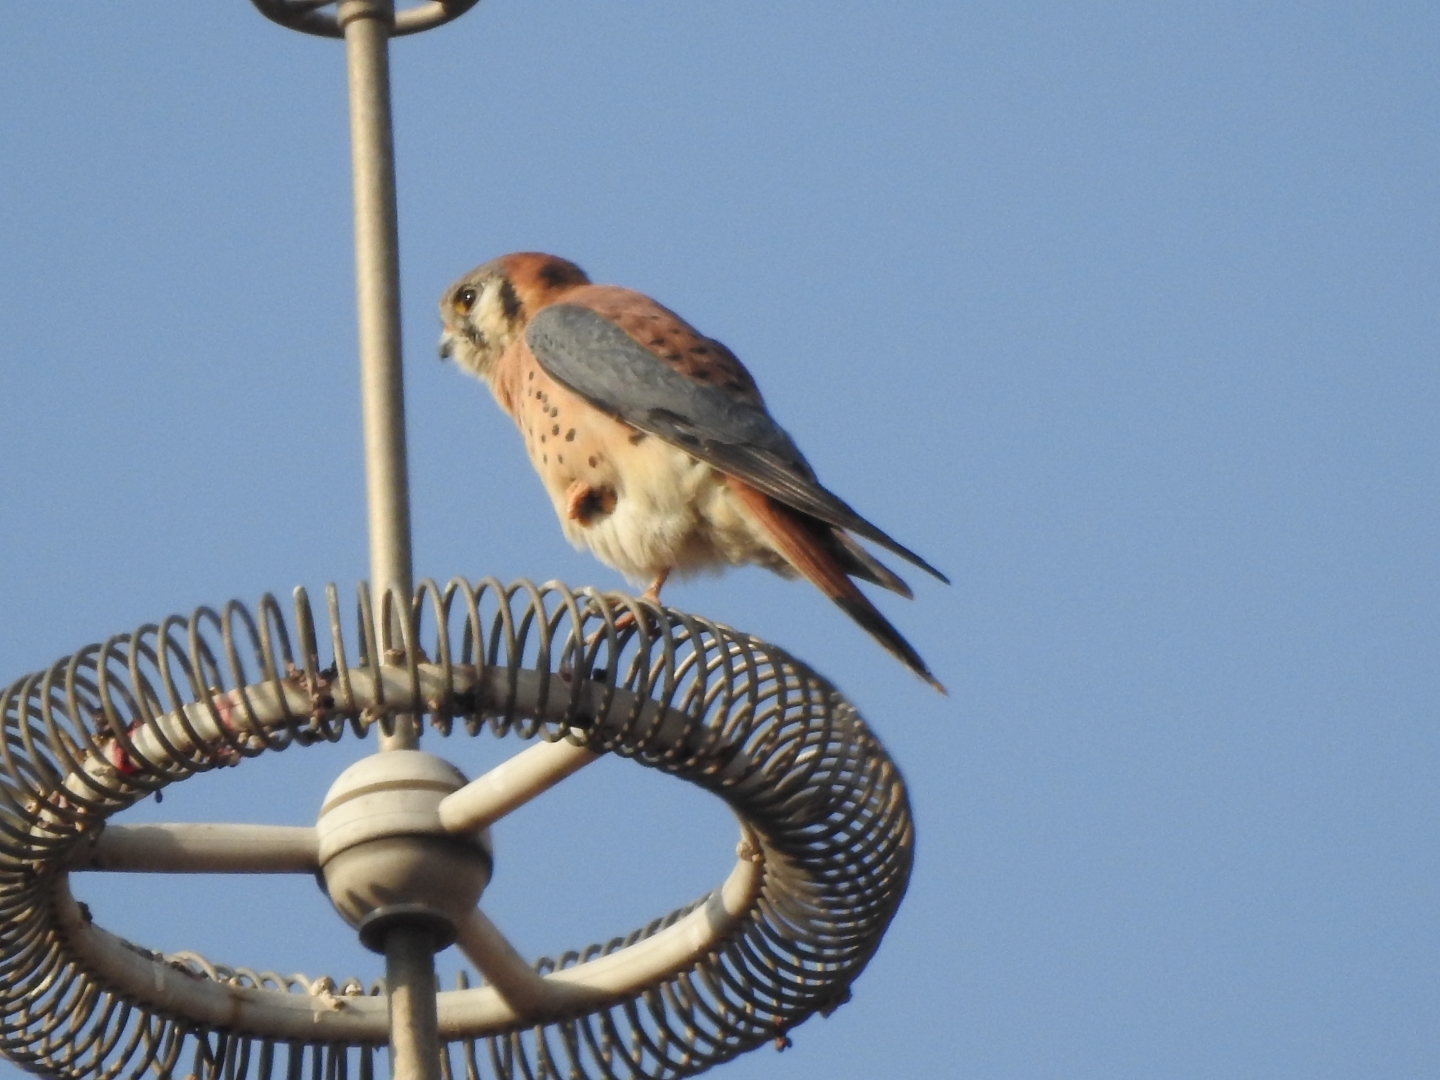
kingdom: Animalia
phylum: Chordata
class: Aves
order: Falconiformes
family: Falconidae
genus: Falco
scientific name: Falco sparverius
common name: American kestrel
